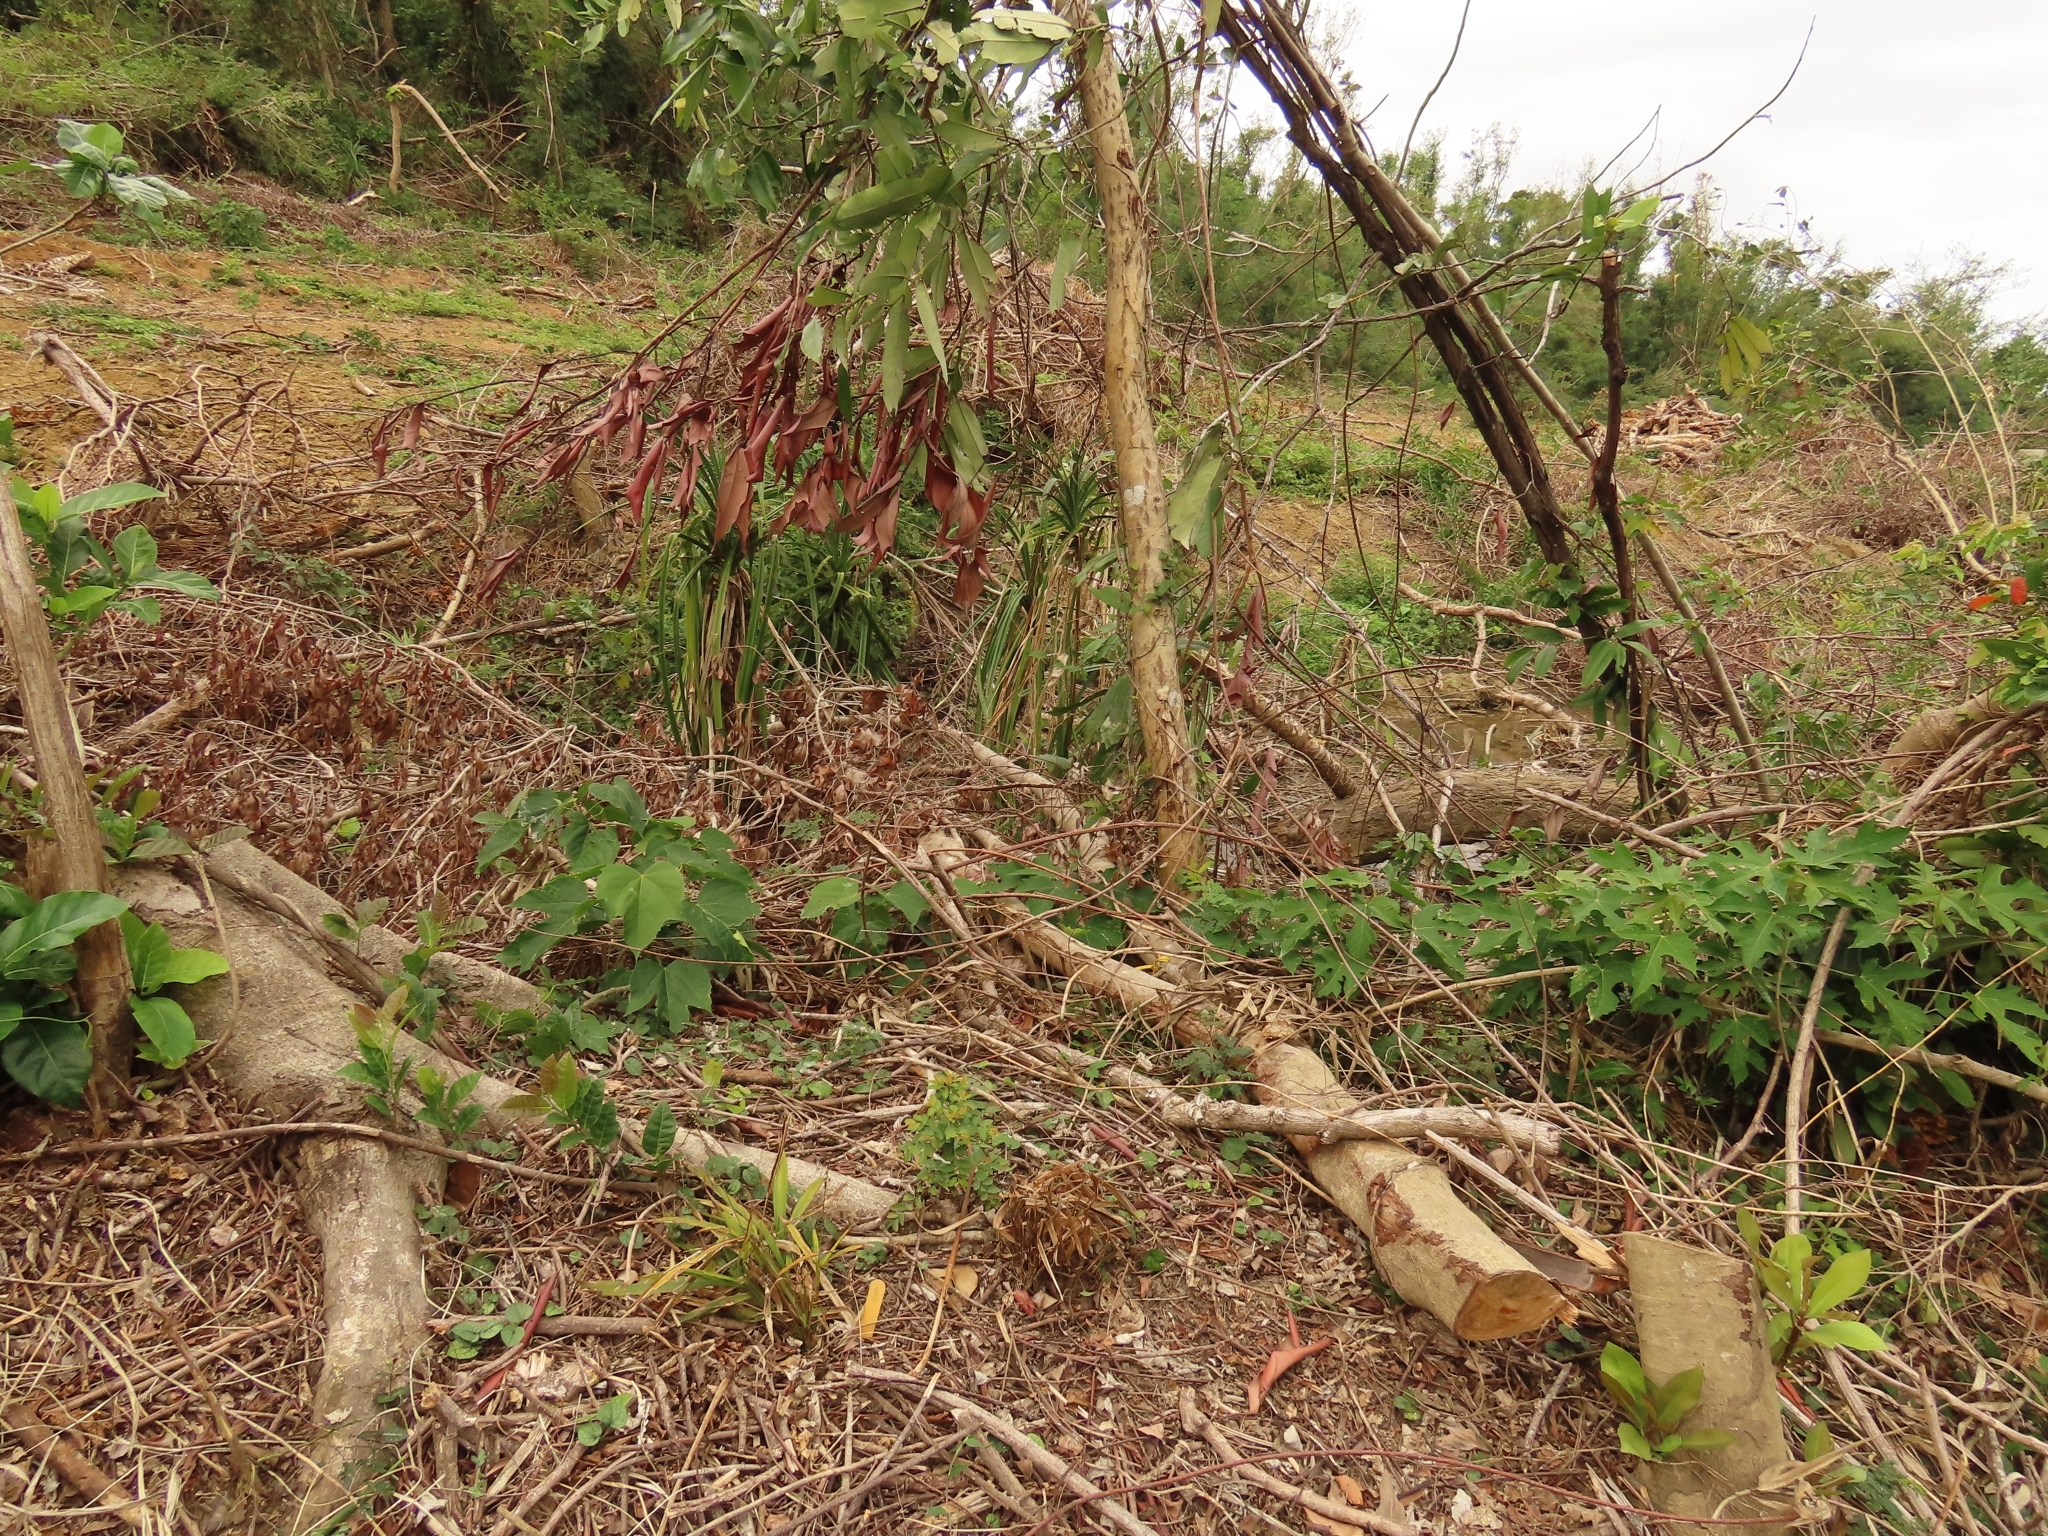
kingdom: Plantae
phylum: Tracheophyta
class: Liliopsida
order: Poales
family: Poaceae
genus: Leptaspis
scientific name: Leptaspis banksii
